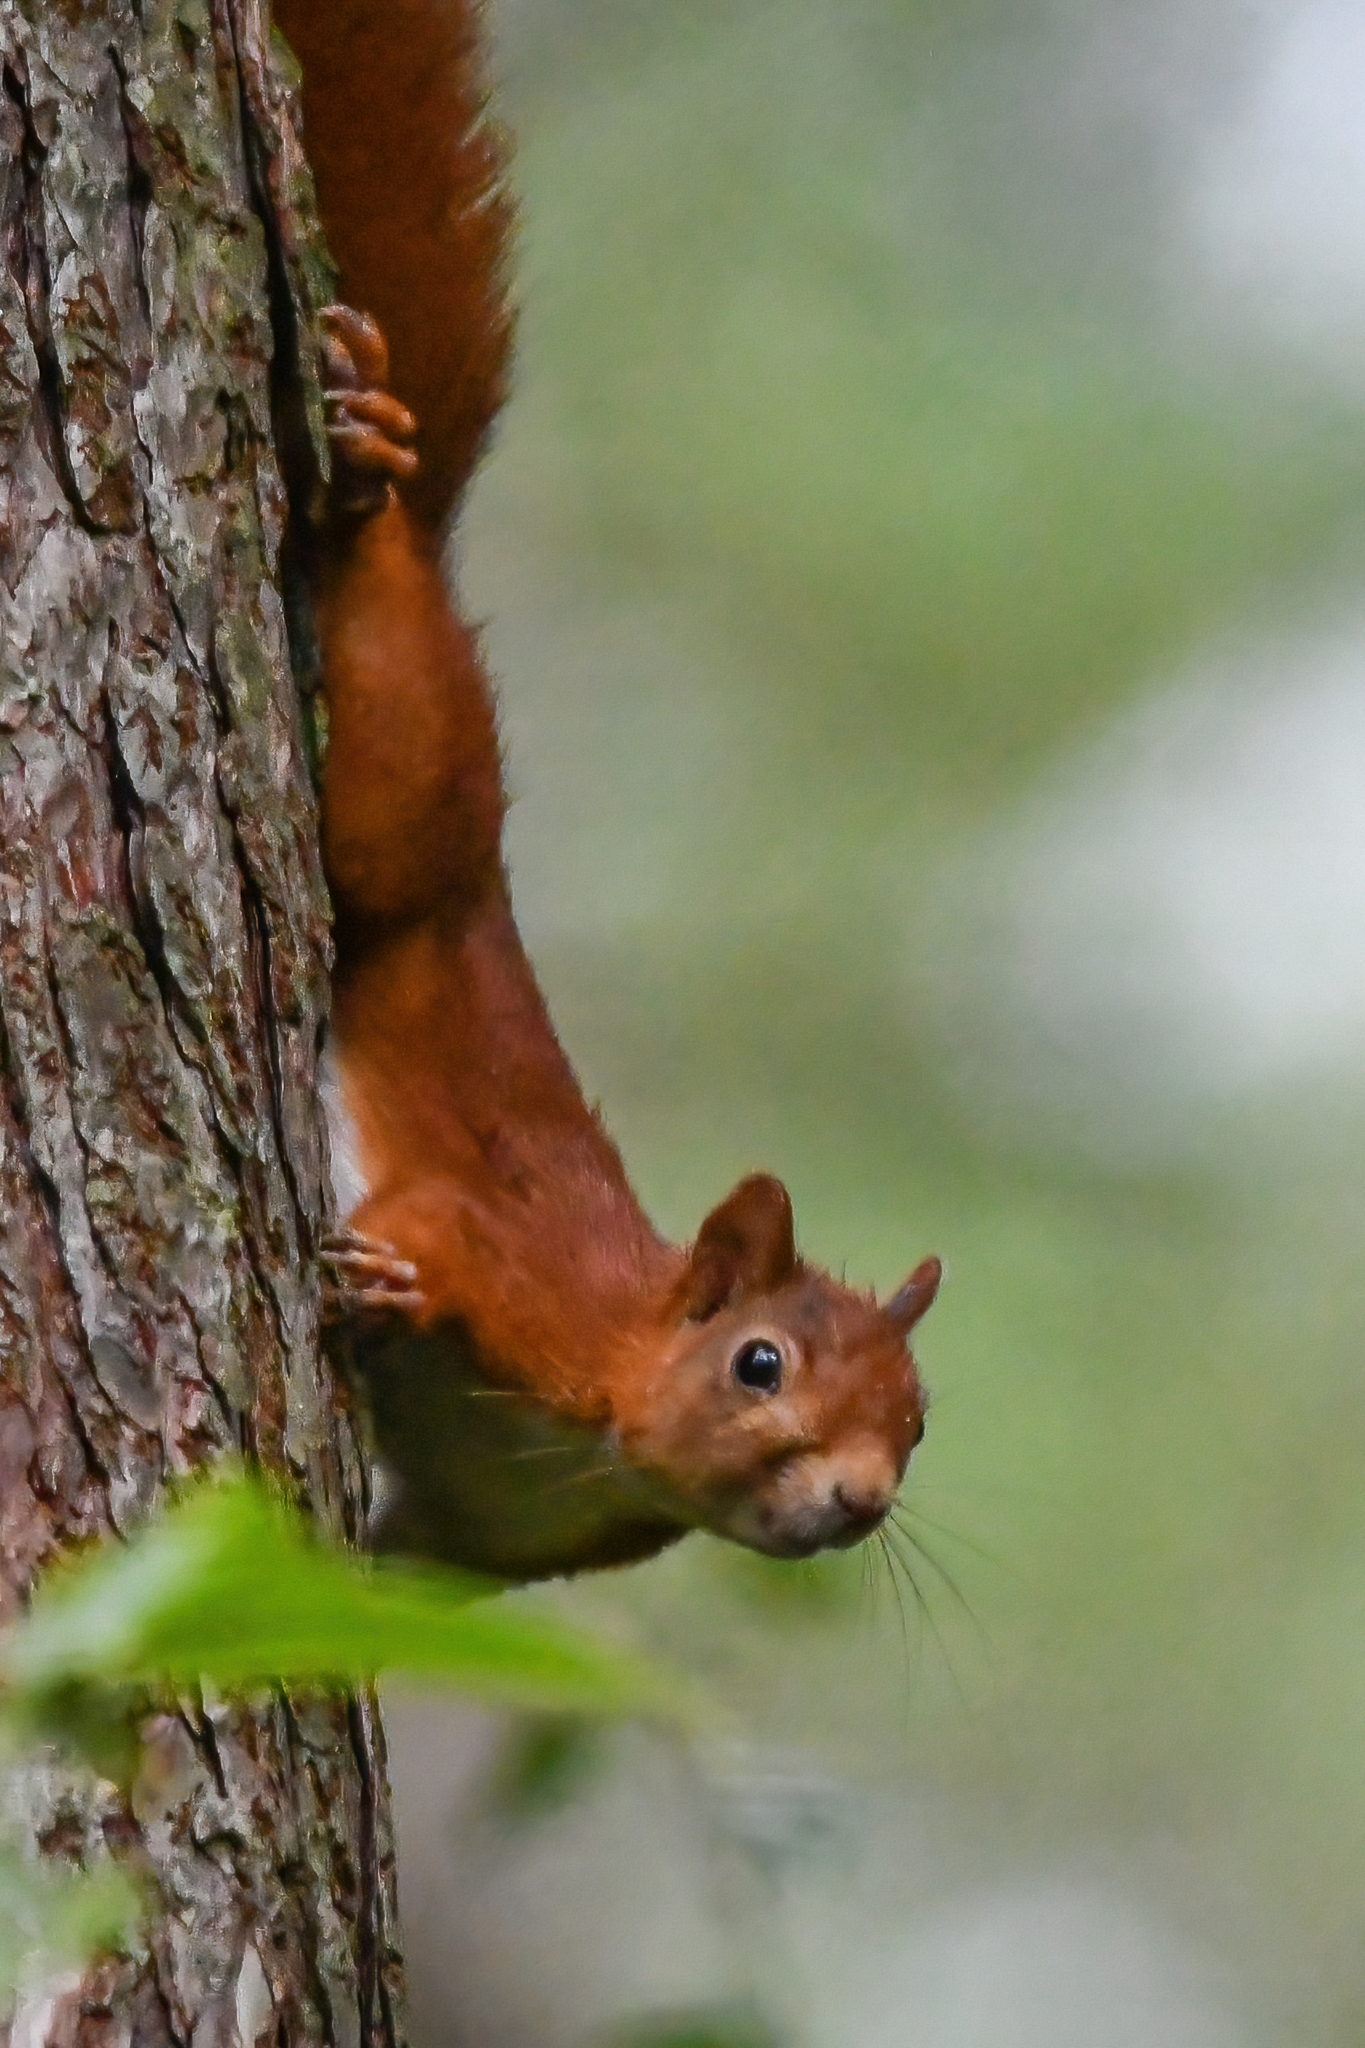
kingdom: Animalia
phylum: Chordata
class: Mammalia
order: Rodentia
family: Sciuridae
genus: Sciurus
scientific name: Sciurus vulgaris
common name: Eurasian red squirrel
